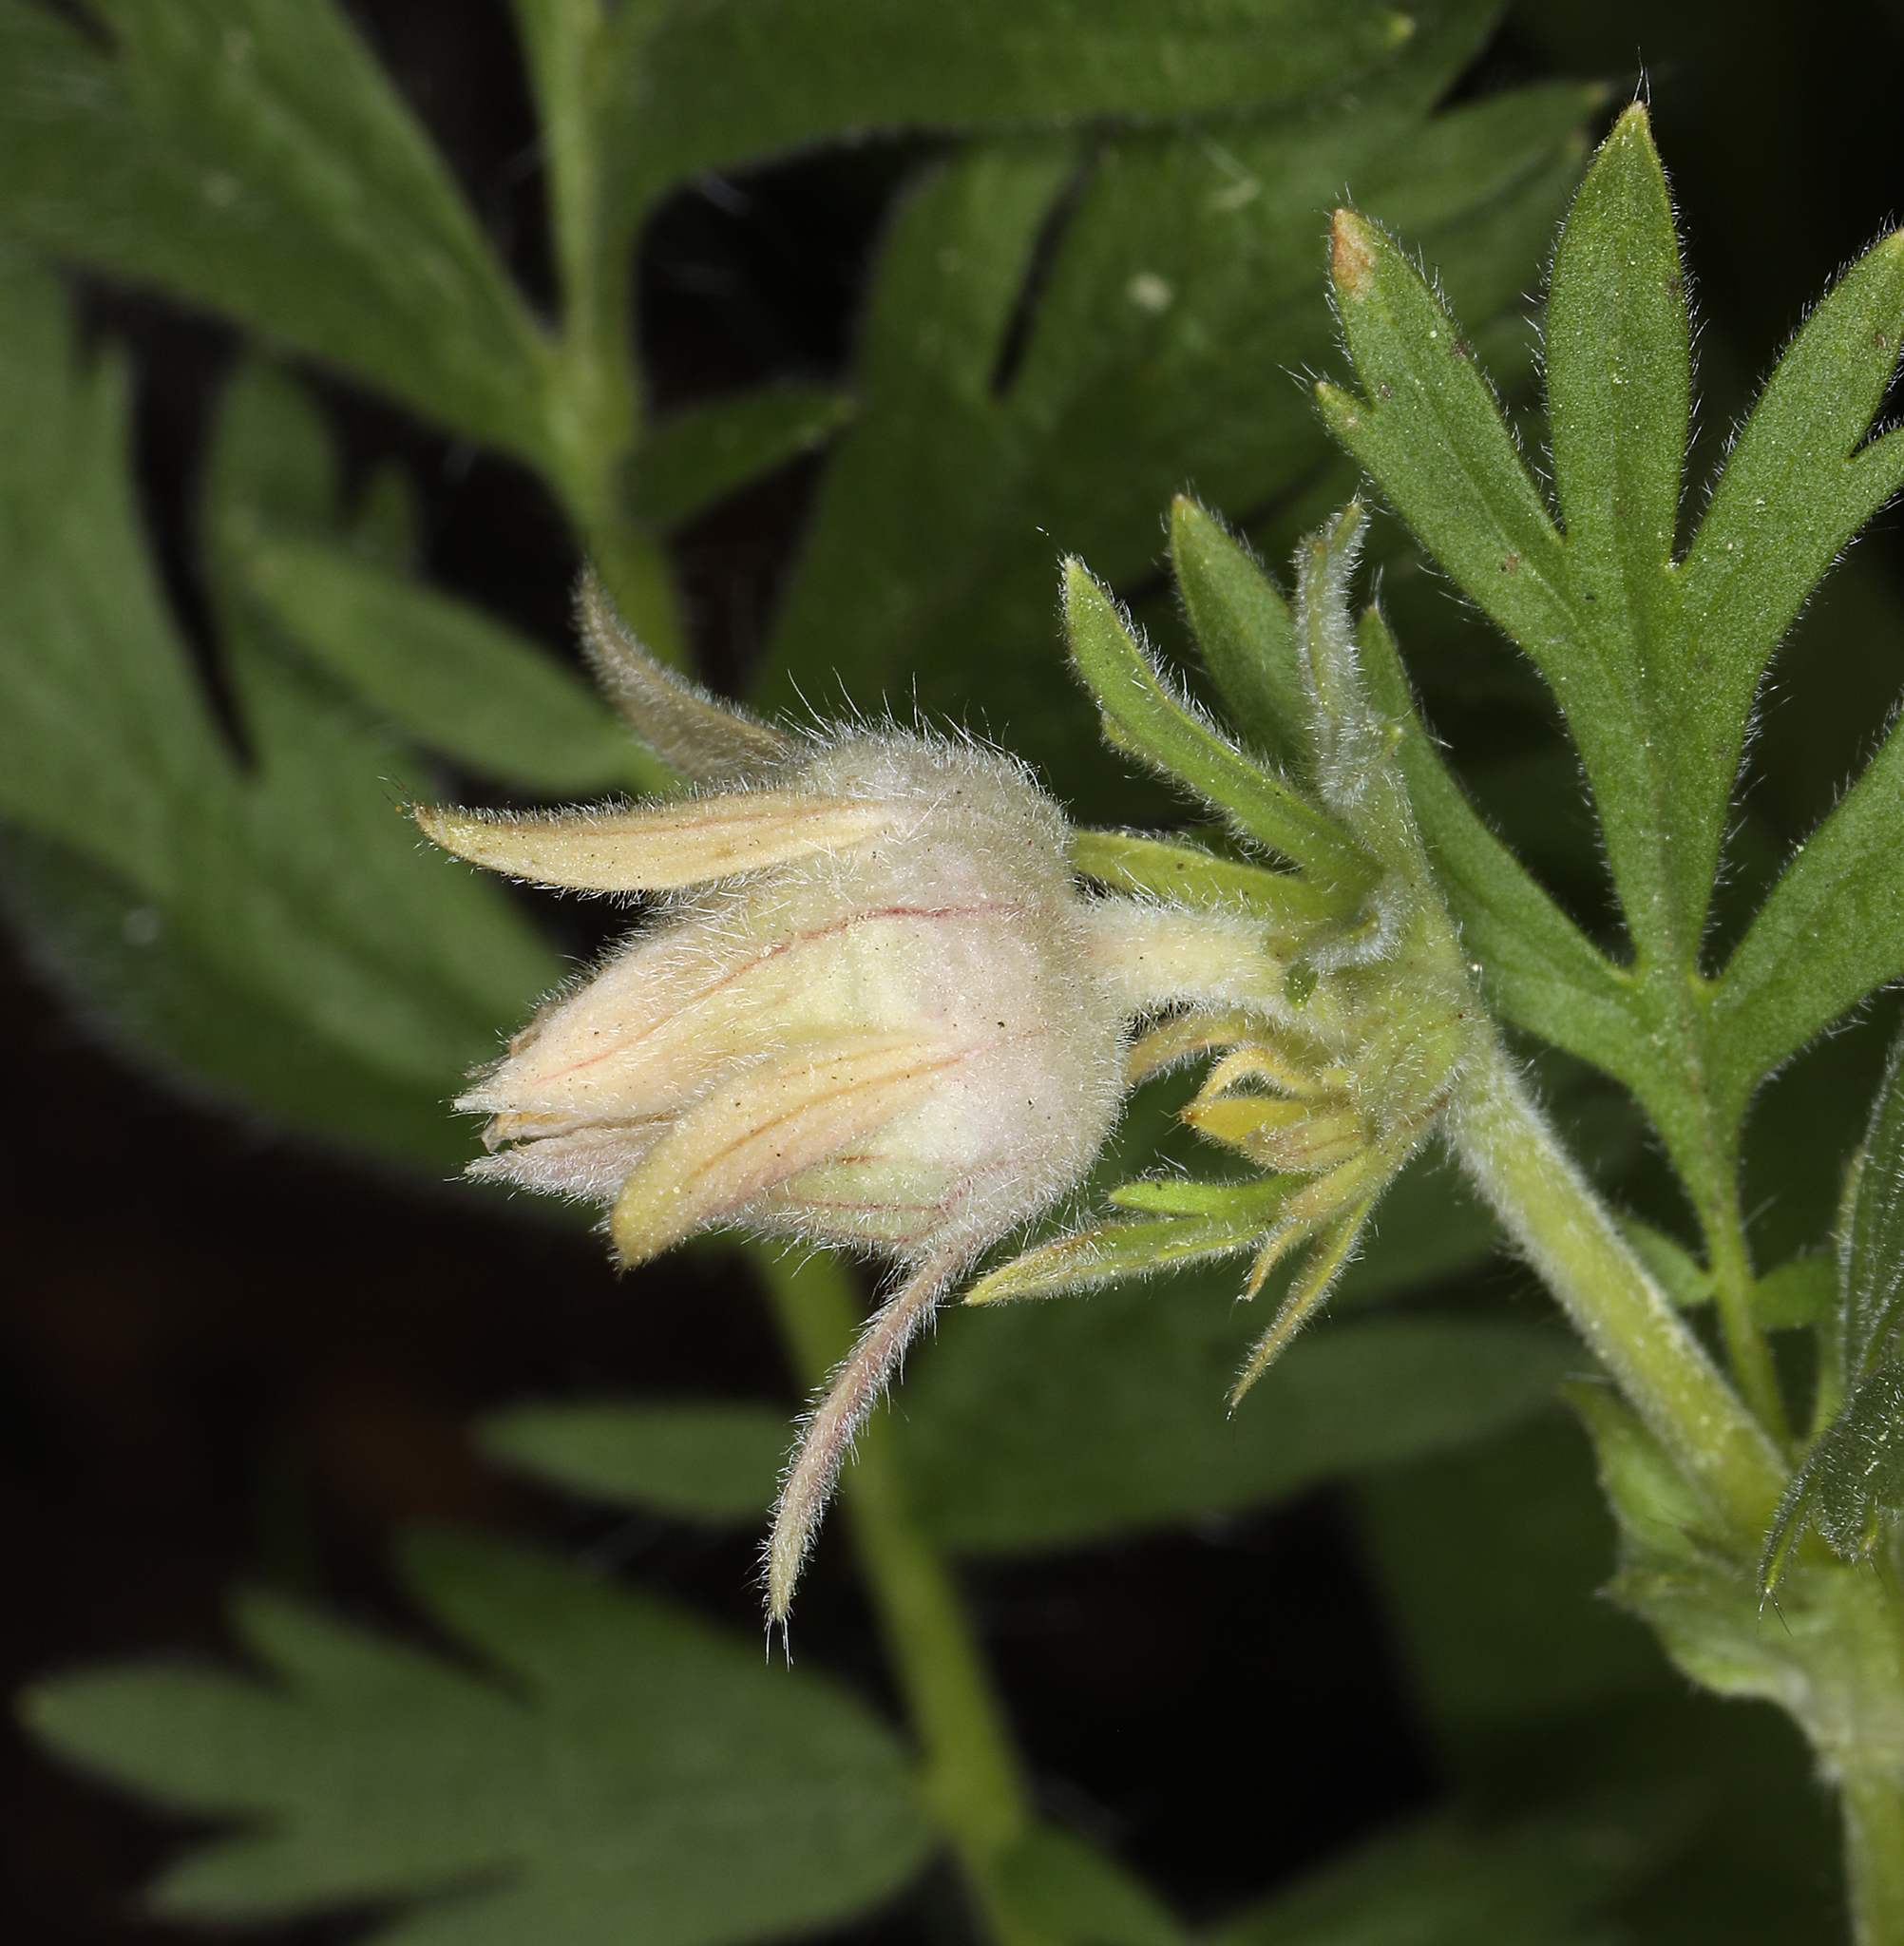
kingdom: Plantae
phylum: Tracheophyta
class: Magnoliopsida
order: Rosales
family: Rosaceae
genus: Geum
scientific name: Geum triflorum
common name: Old man's whiskers
